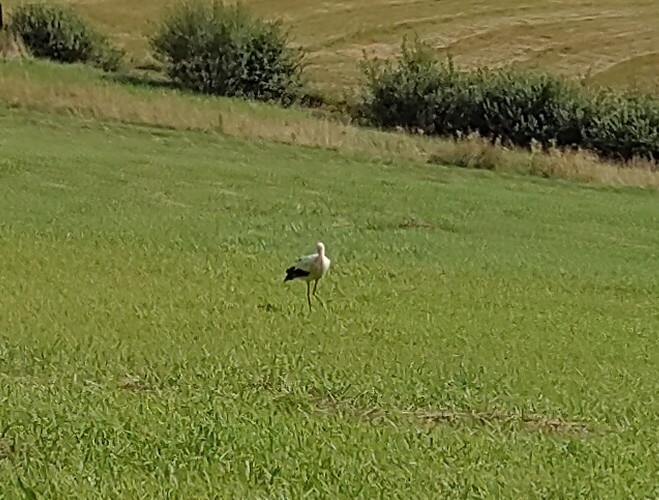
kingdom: Animalia
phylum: Chordata
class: Aves
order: Ciconiiformes
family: Ciconiidae
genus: Ciconia
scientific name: Ciconia ciconia
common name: White stork
